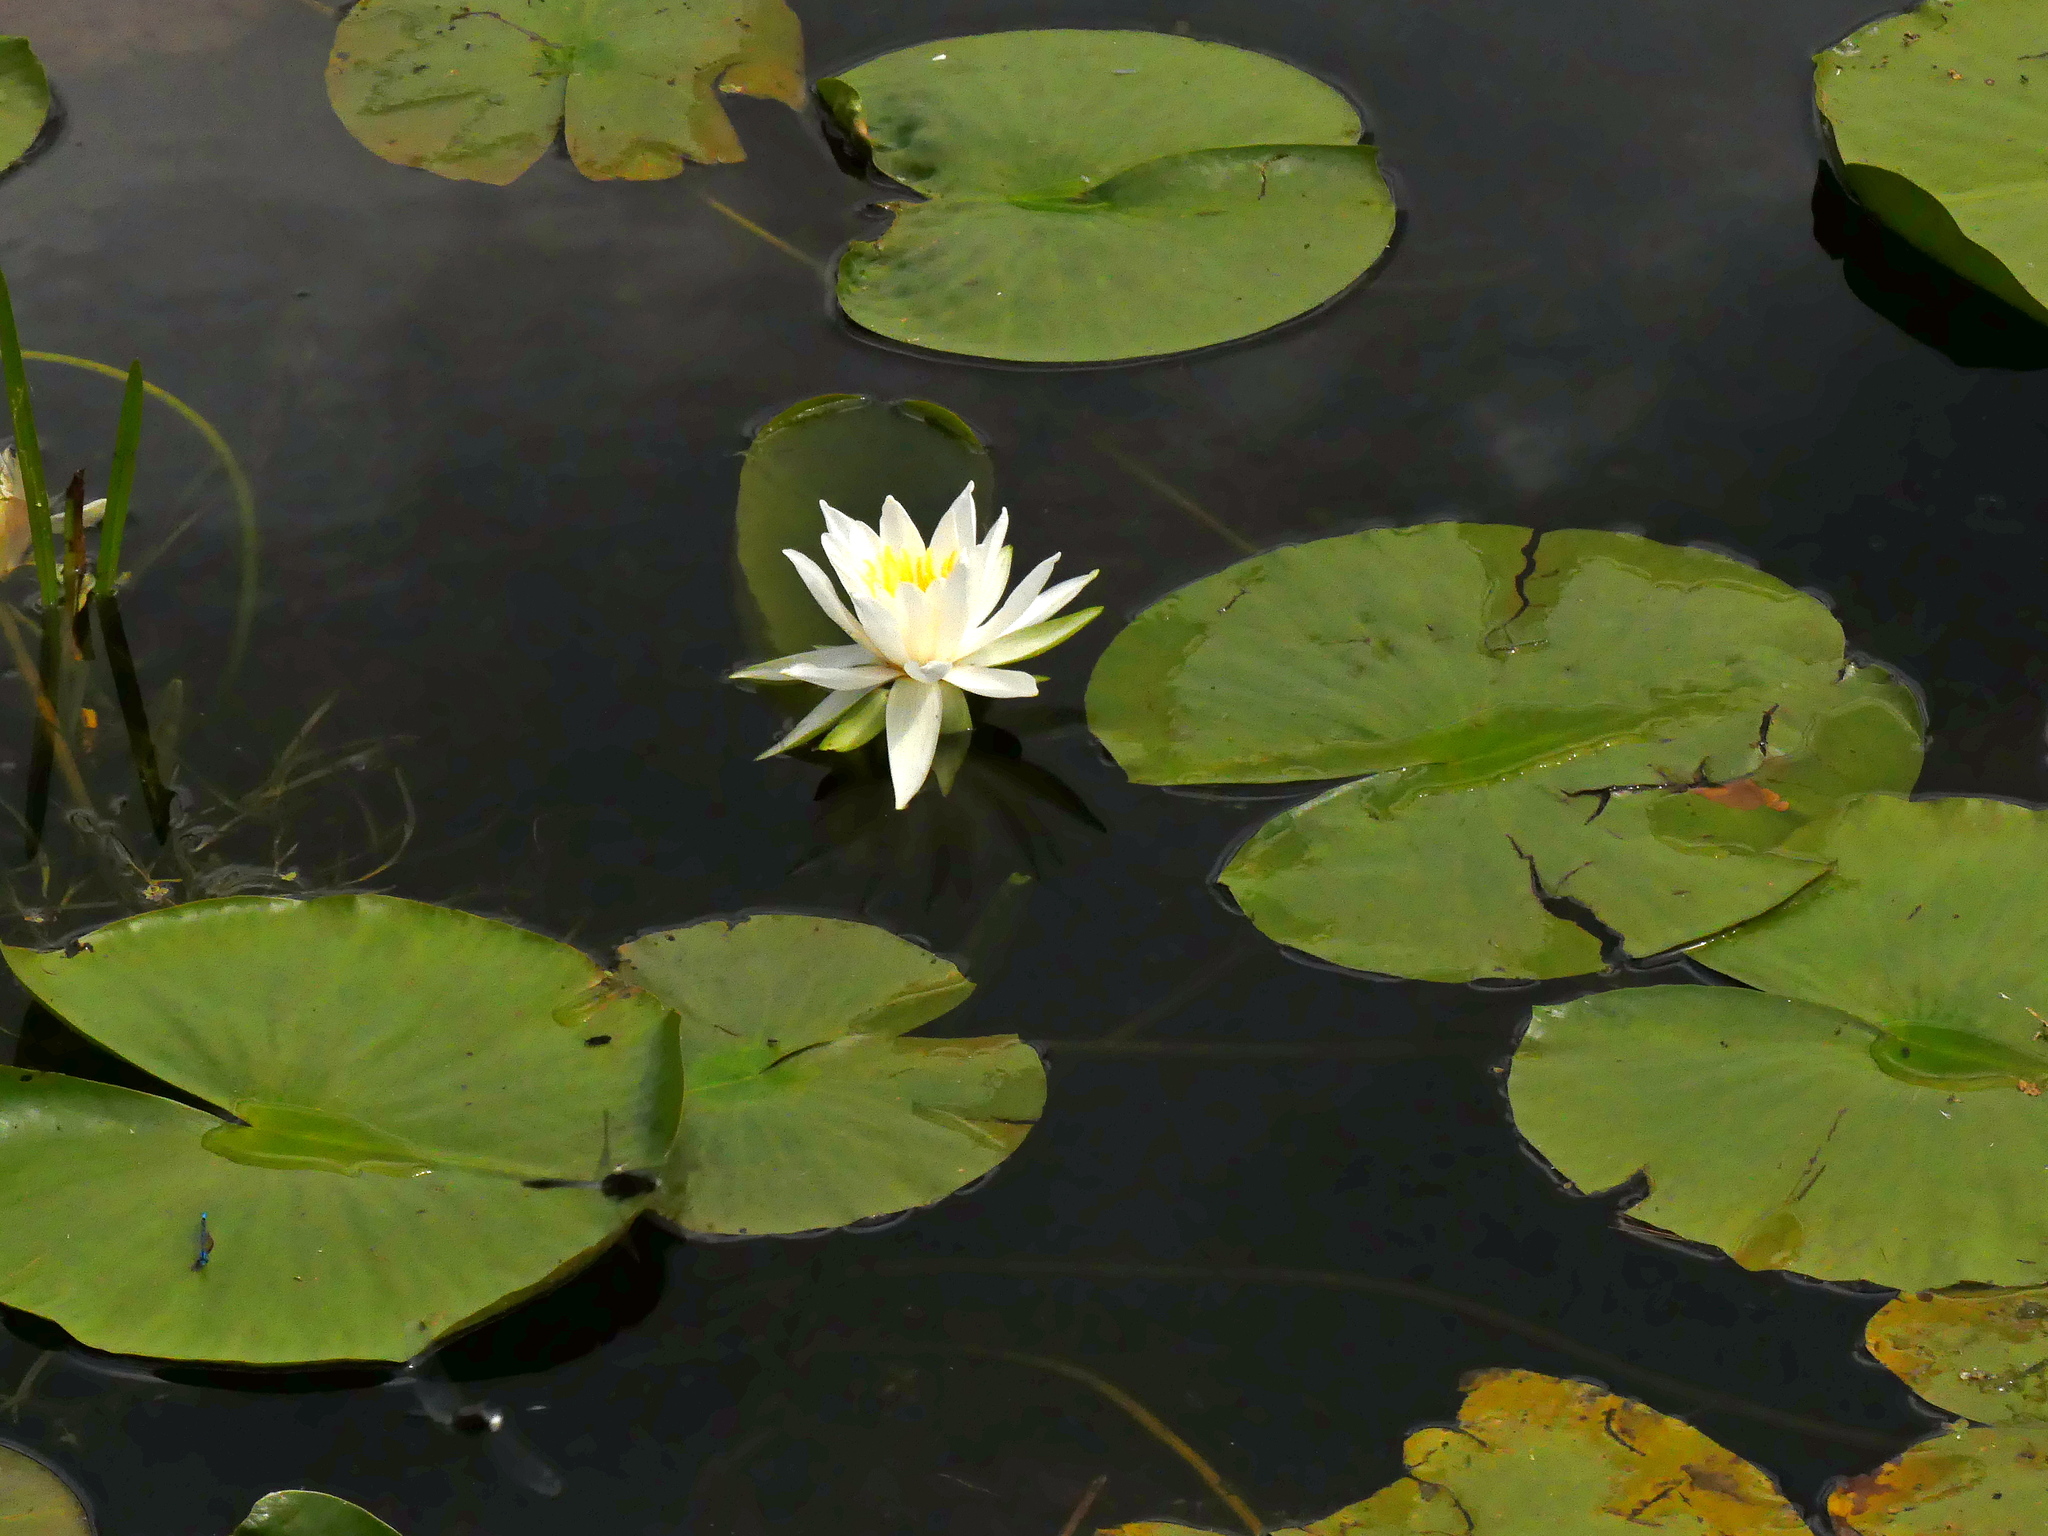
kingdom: Plantae
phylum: Tracheophyta
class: Magnoliopsida
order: Nymphaeales
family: Nymphaeaceae
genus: Nymphaea
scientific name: Nymphaea odorata
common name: Fragrant water-lily
